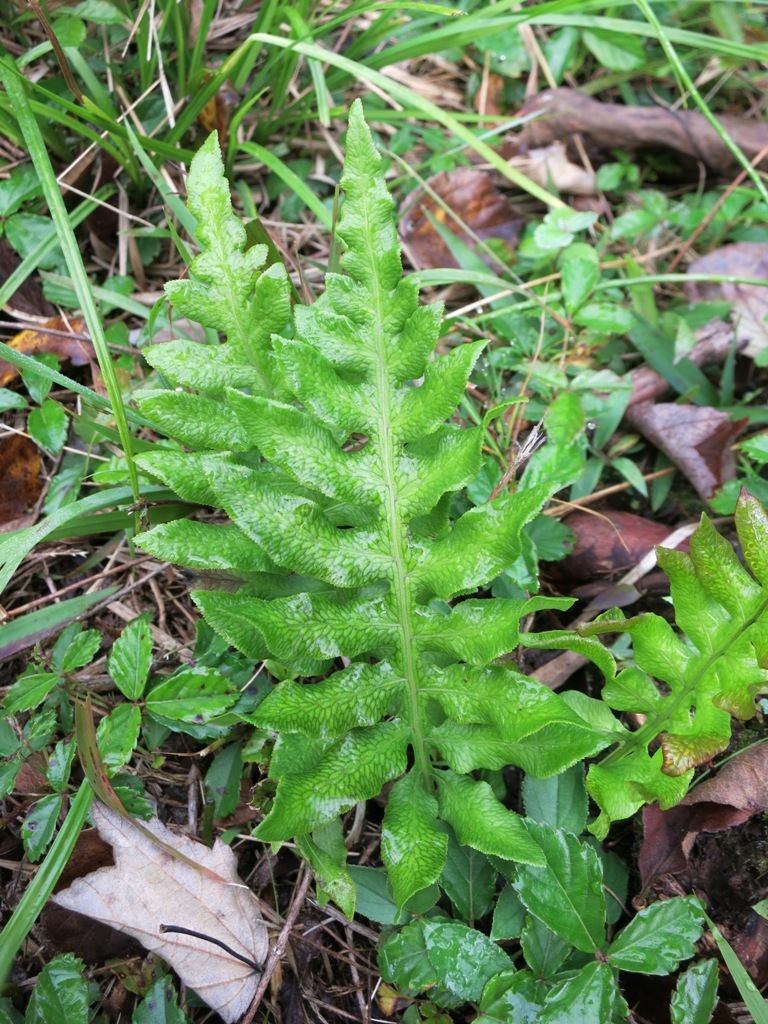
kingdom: Plantae
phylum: Tracheophyta
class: Polypodiopsida
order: Polypodiales
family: Blechnaceae
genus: Lorinseria
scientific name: Lorinseria areolata
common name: Dwarf chain fern
